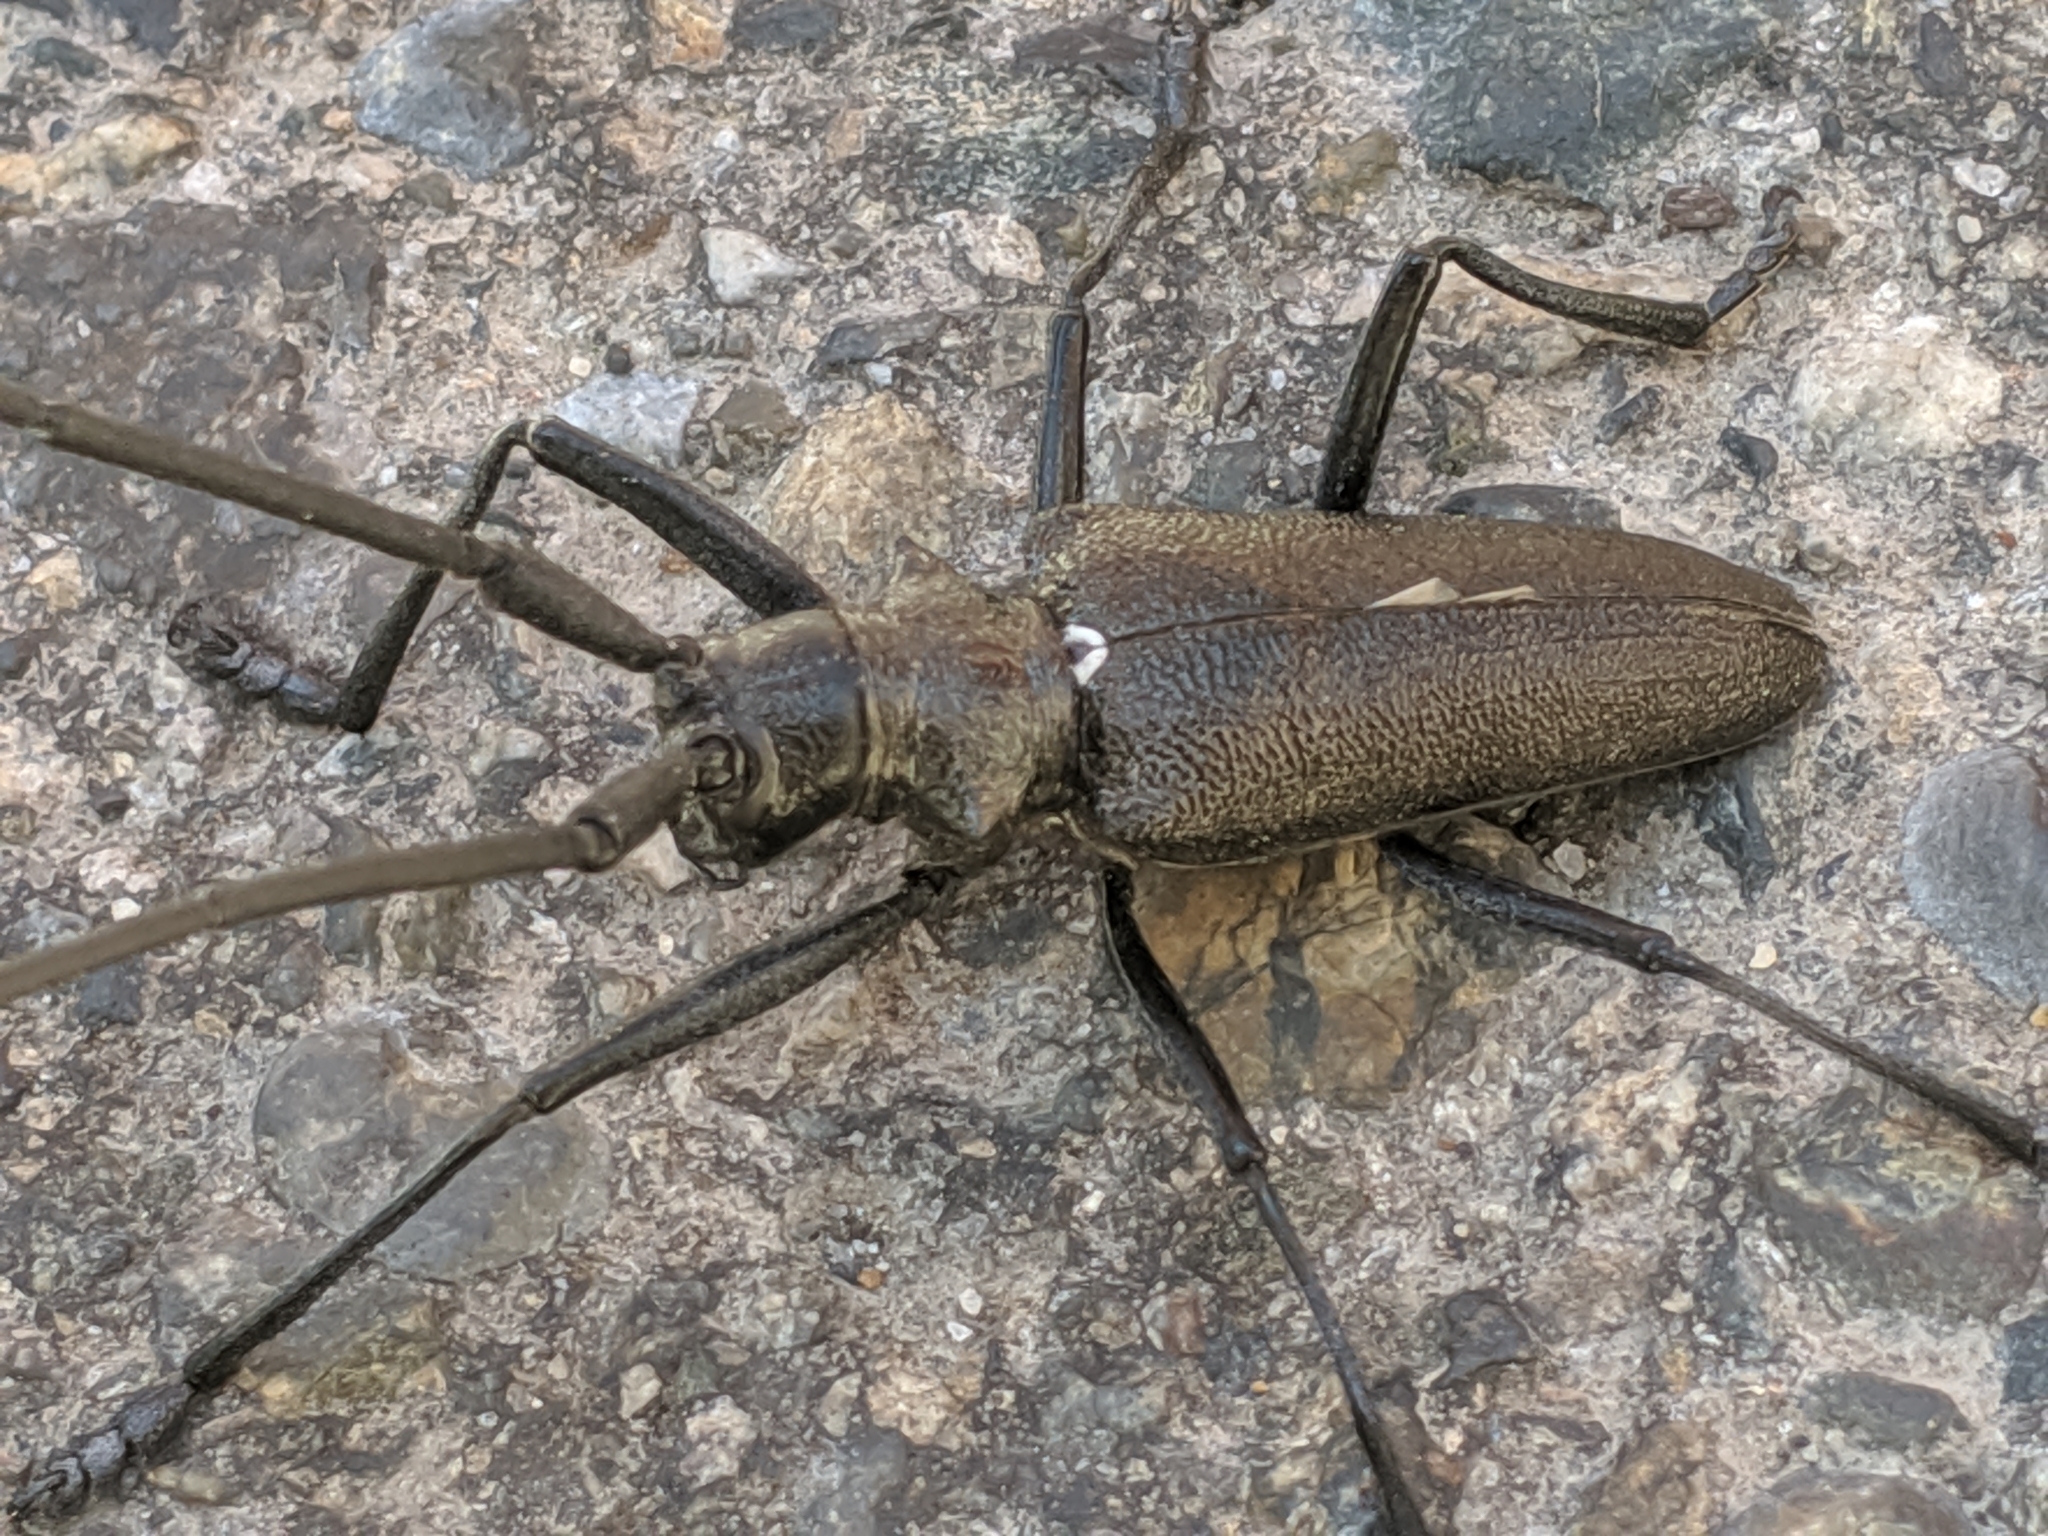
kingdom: Animalia
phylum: Arthropoda
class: Insecta
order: Coleoptera
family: Cerambycidae
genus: Monochamus
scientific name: Monochamus scutellatus
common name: White-spotted sawyer beetle
